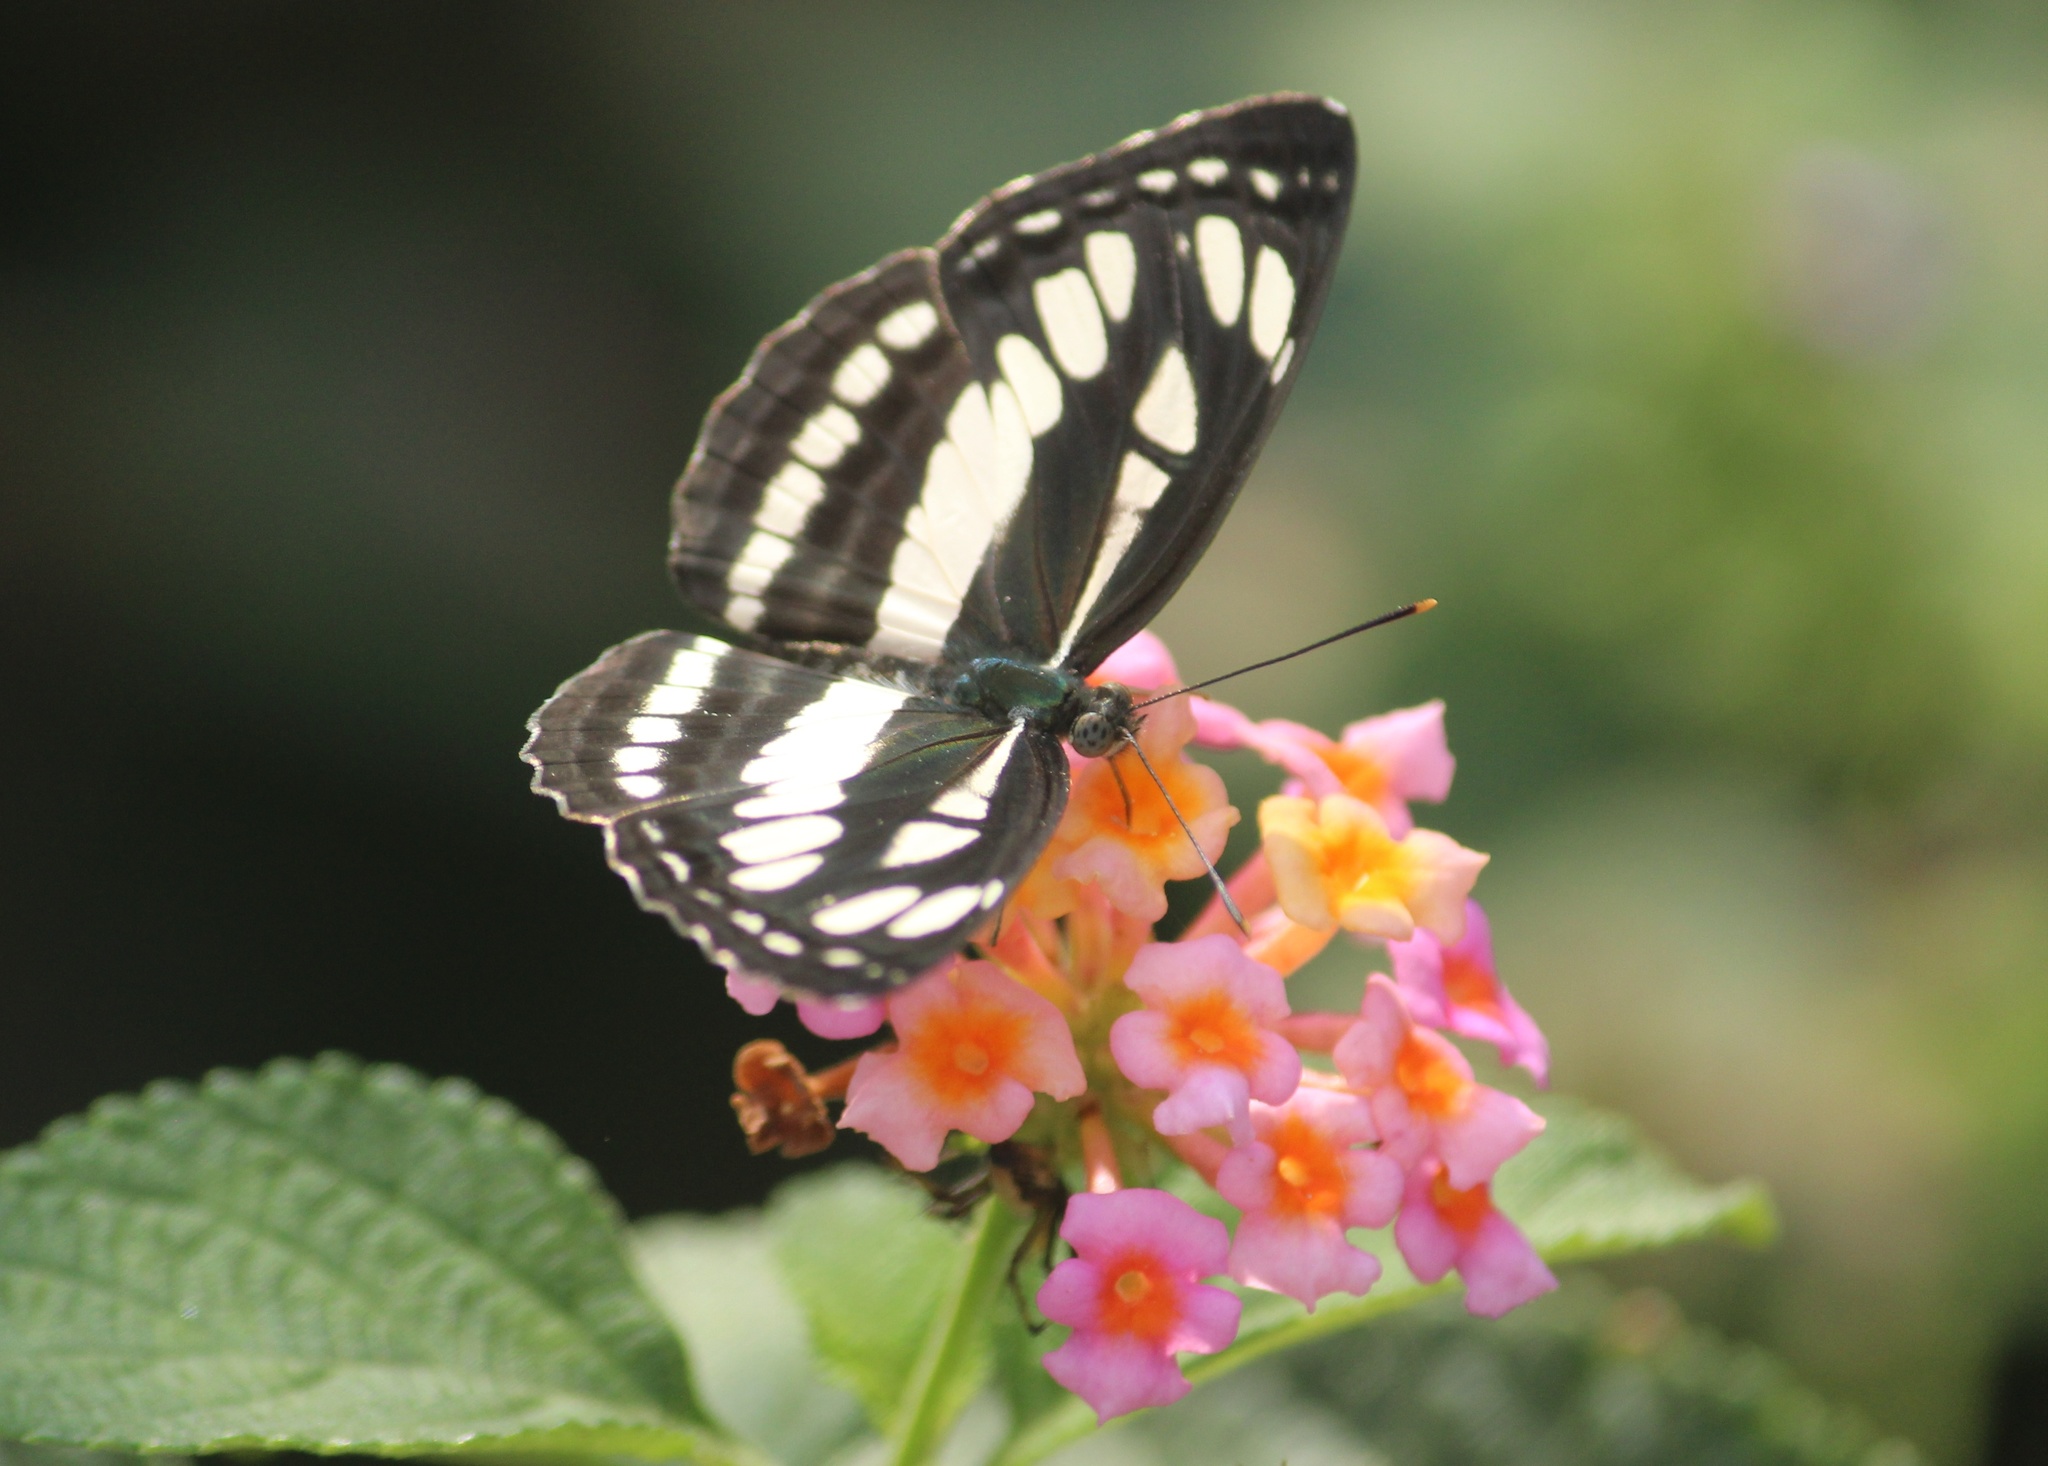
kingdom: Animalia
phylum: Arthropoda
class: Insecta
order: Lepidoptera
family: Nymphalidae
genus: Neptis
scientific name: Neptis hylas
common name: Common sailer
